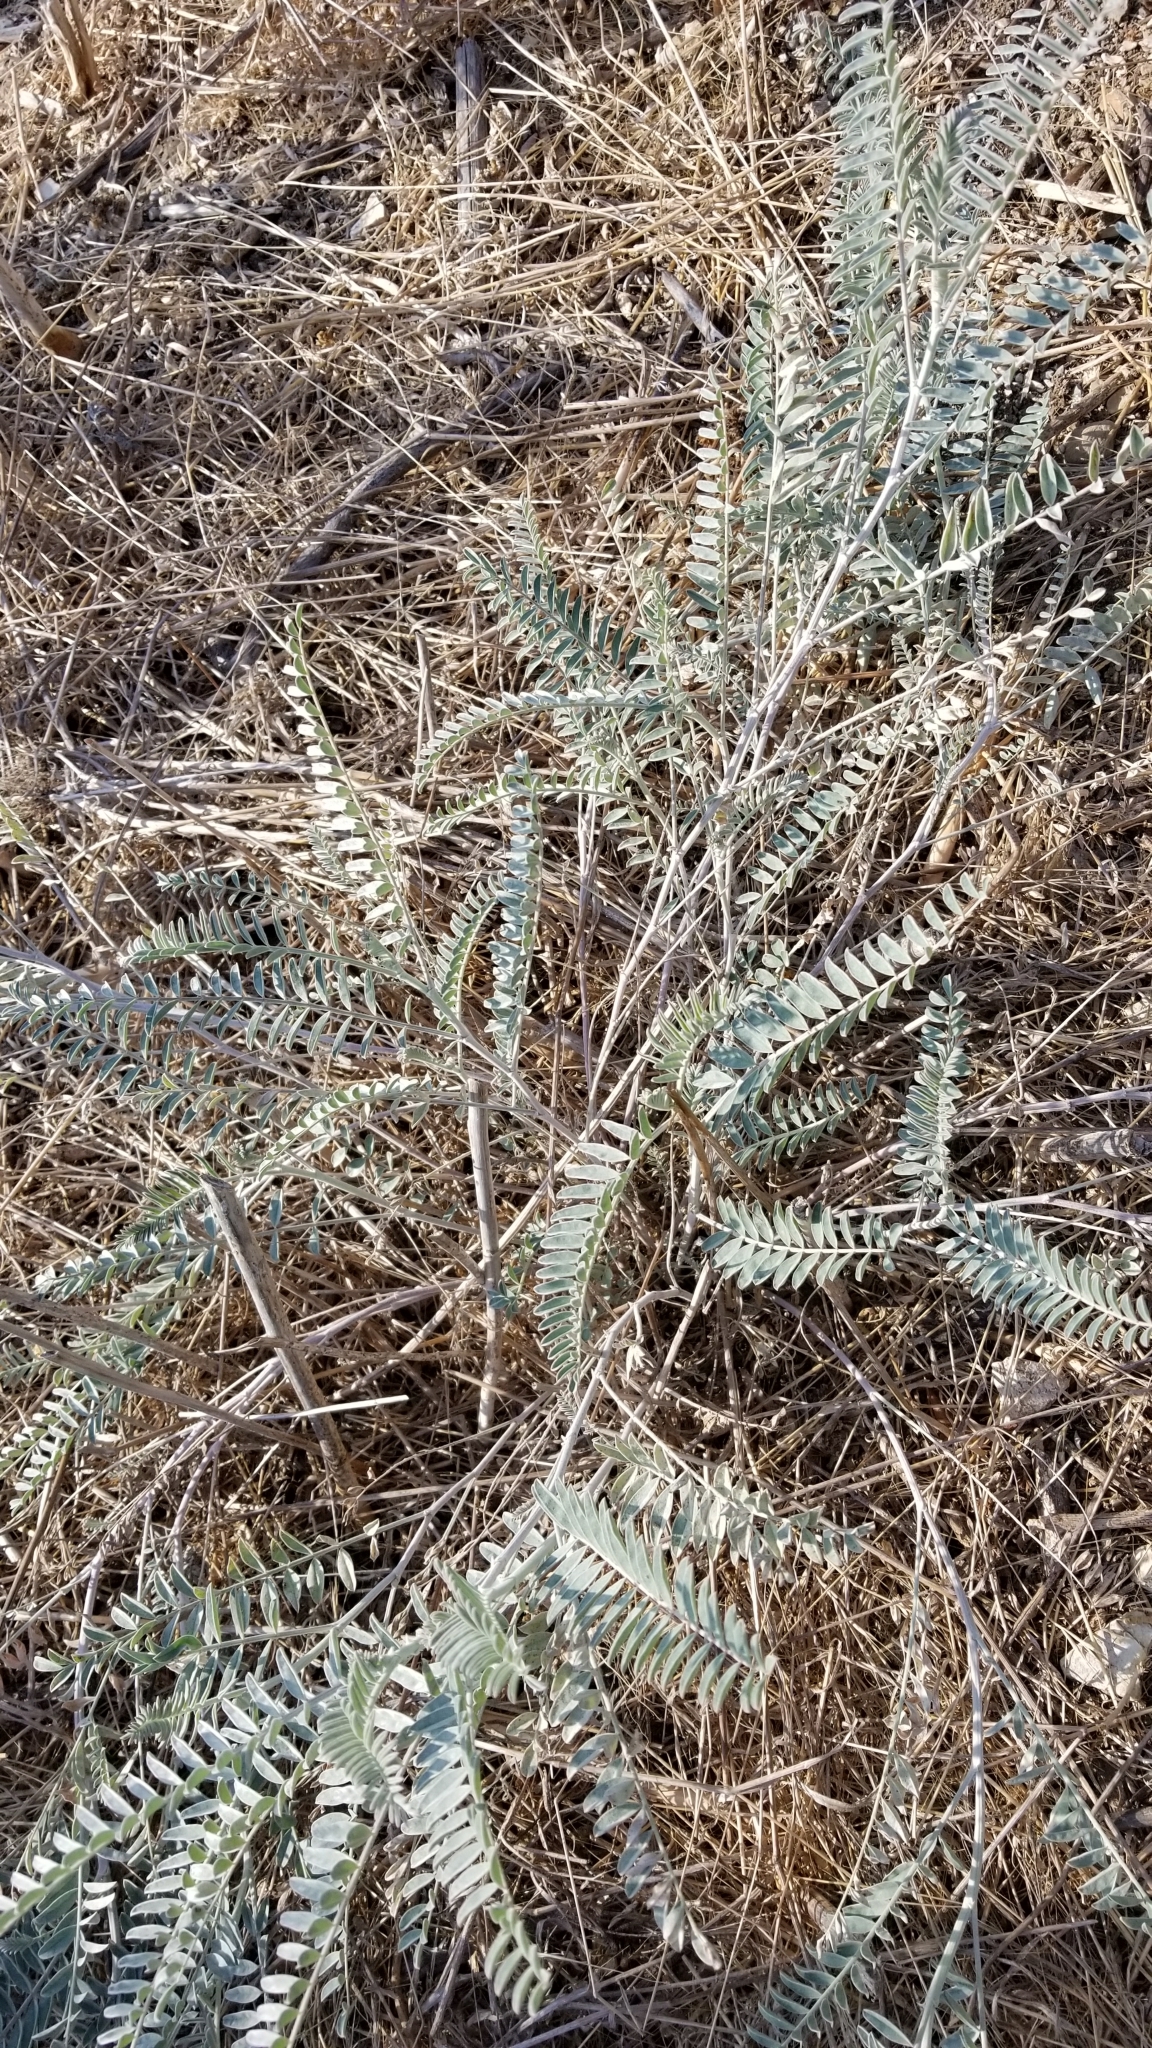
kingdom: Plantae
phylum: Tracheophyta
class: Magnoliopsida
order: Fabales
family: Fabaceae
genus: Astragalus
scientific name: Astragalus trichopodus
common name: Santa barbara milk-vetch
